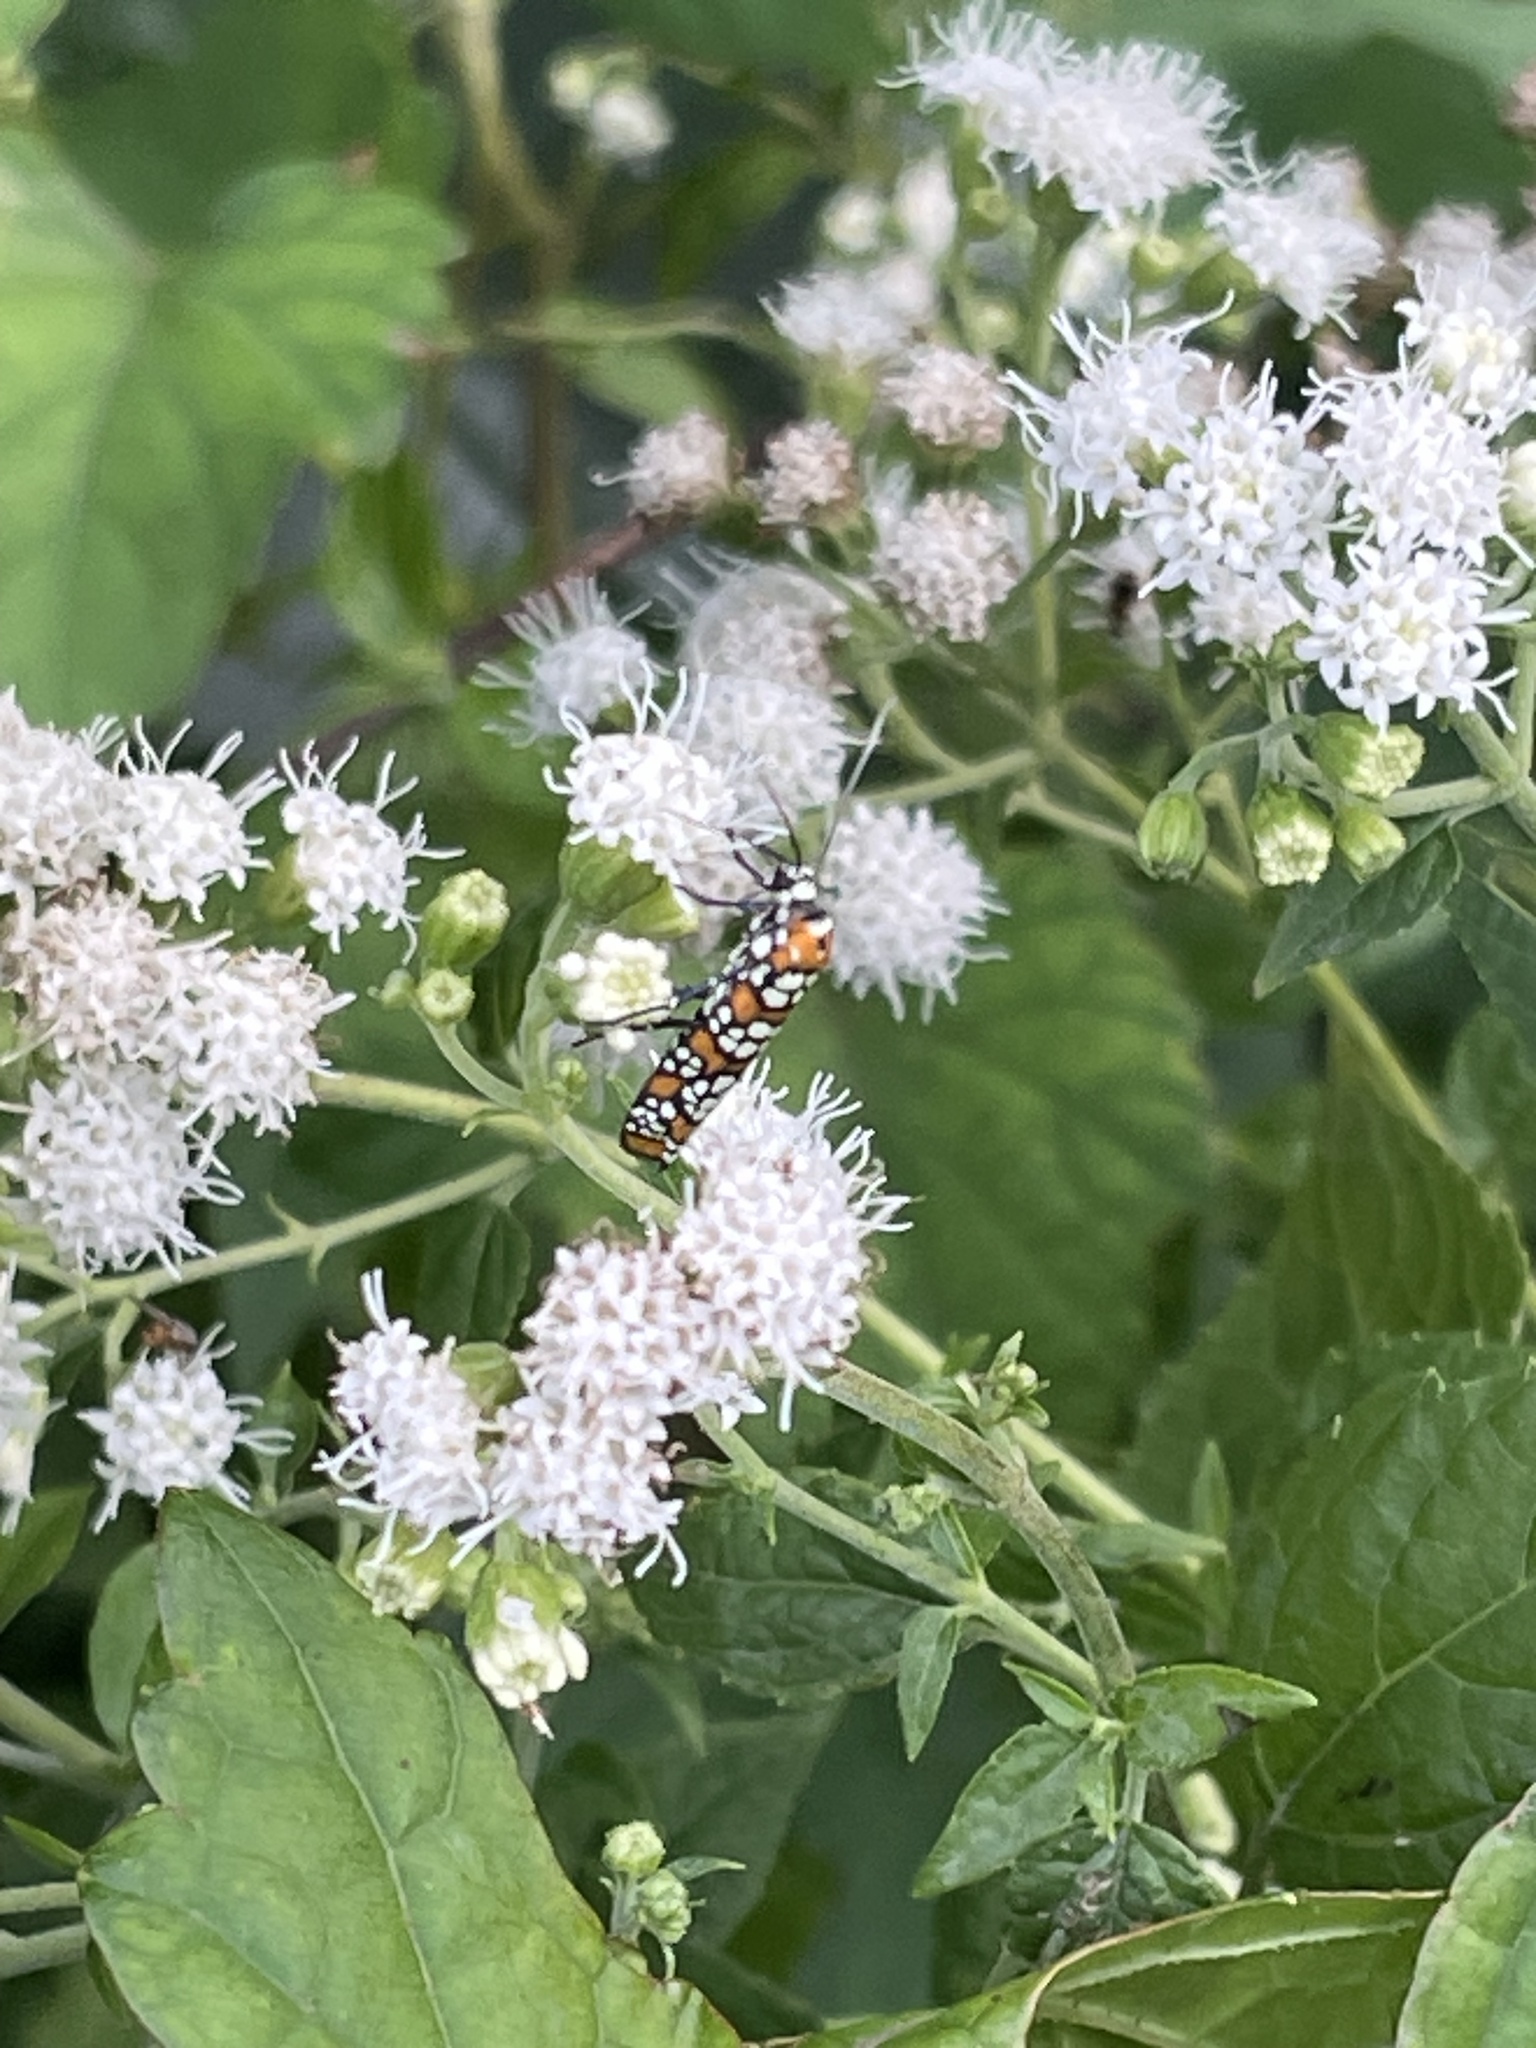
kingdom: Animalia
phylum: Arthropoda
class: Insecta
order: Lepidoptera
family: Attevidae
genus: Atteva
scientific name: Atteva punctella
